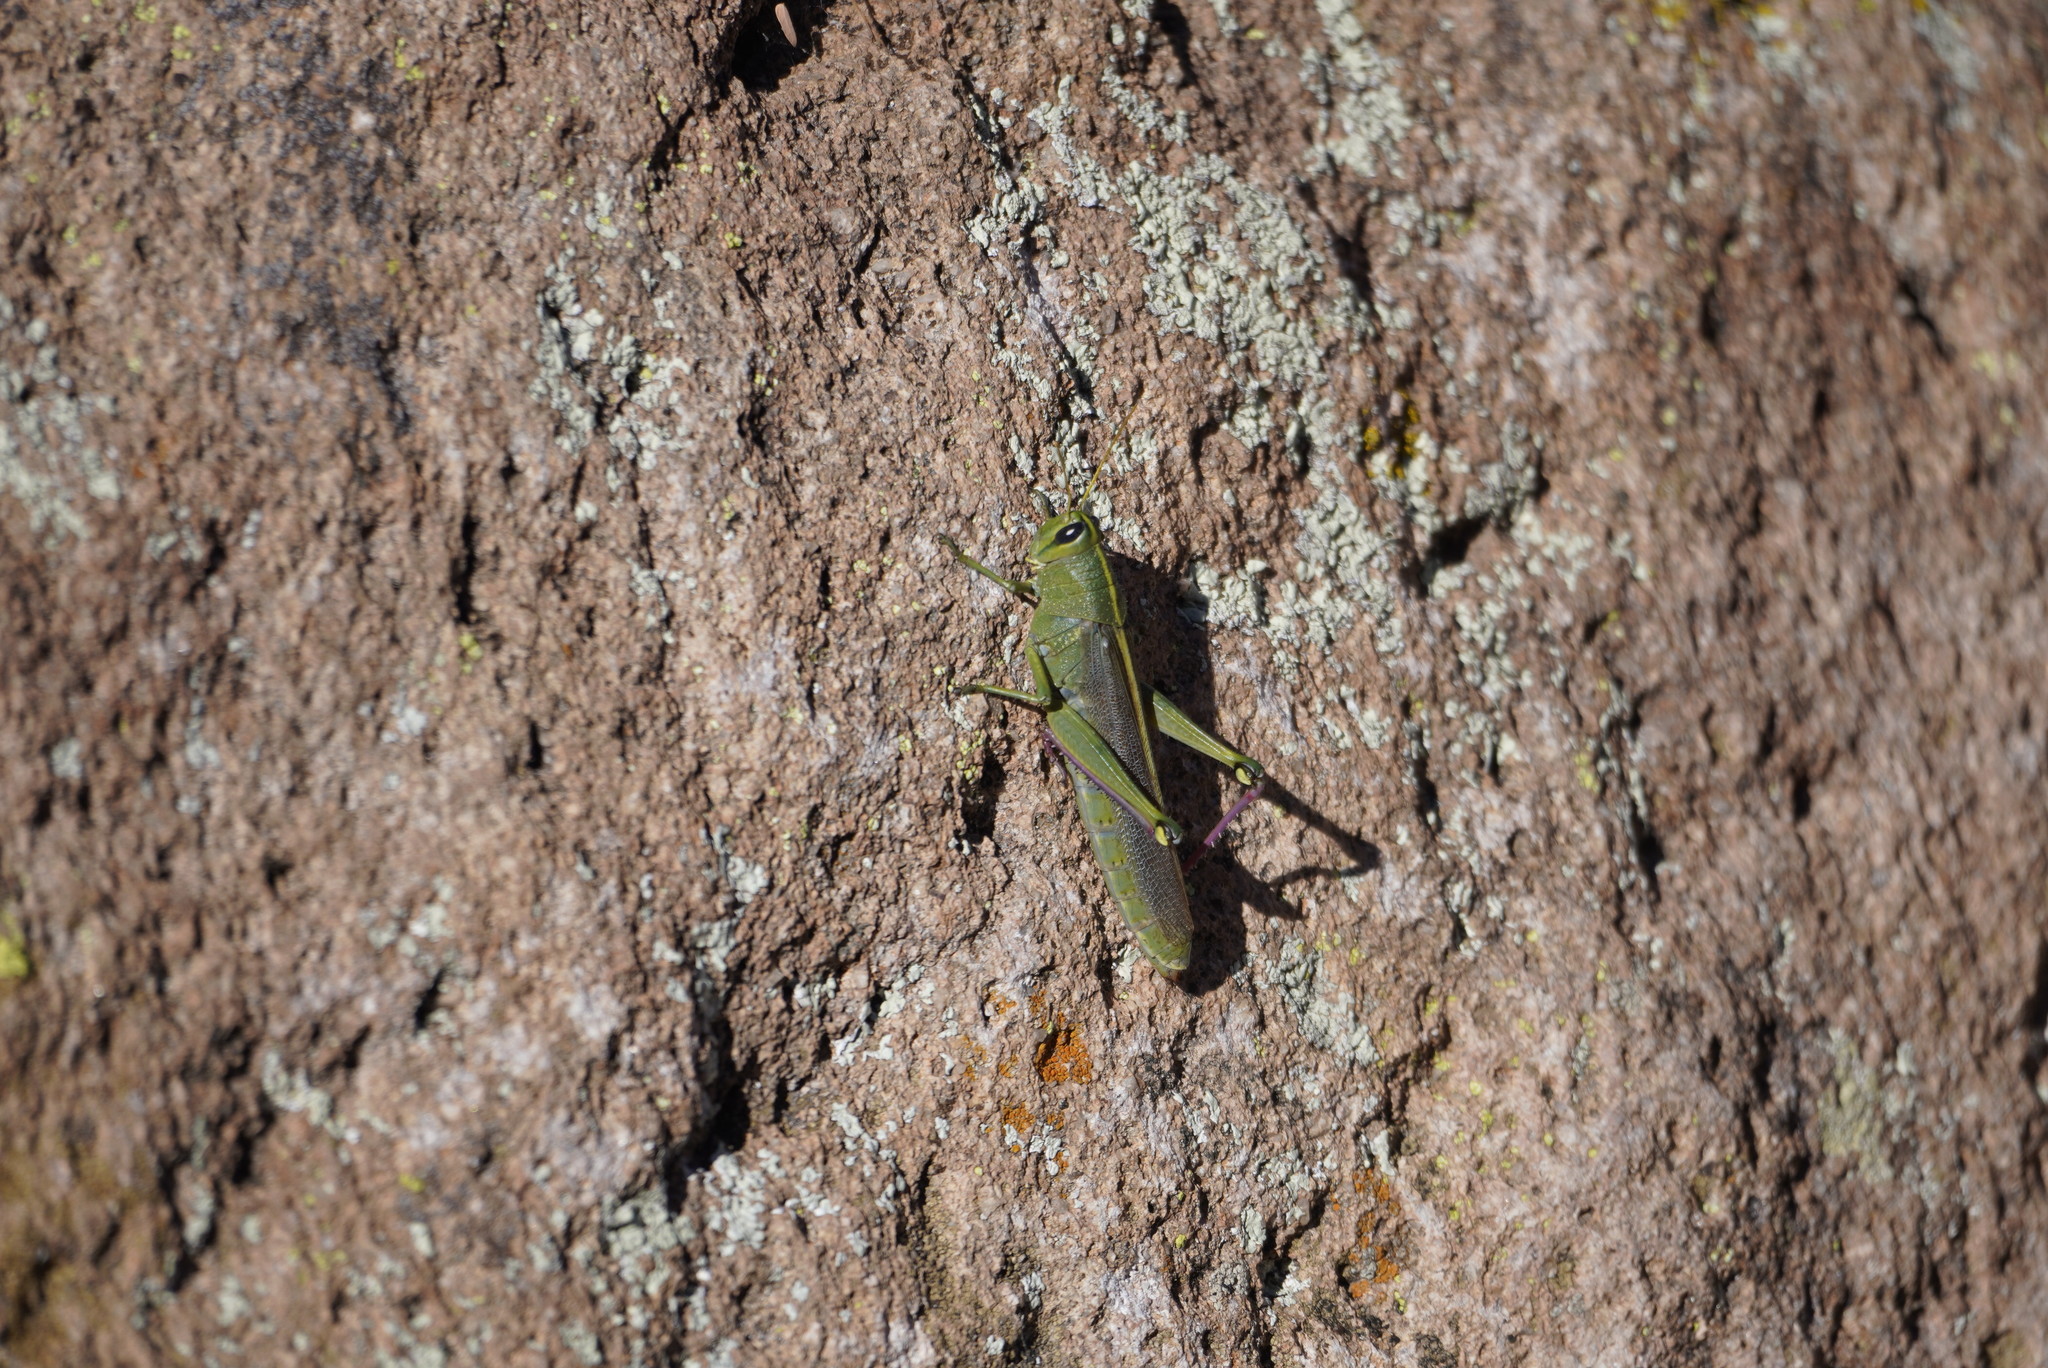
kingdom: Animalia
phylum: Arthropoda
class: Insecta
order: Orthoptera
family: Acrididae
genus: Schistocerca
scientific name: Schistocerca lineata
